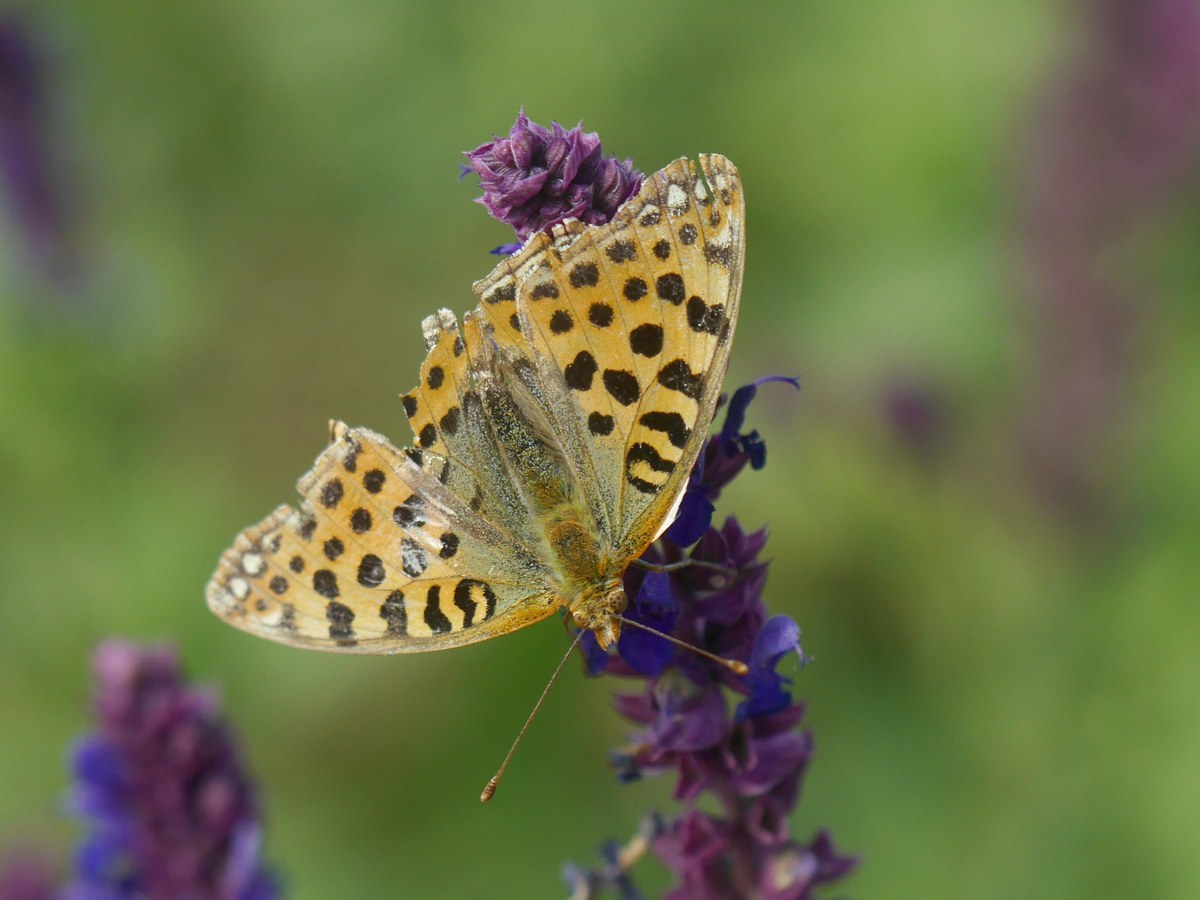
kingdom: Animalia
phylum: Arthropoda
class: Insecta
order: Lepidoptera
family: Nymphalidae
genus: Issoria
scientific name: Issoria lathonia
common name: Queen of spain fritillary
